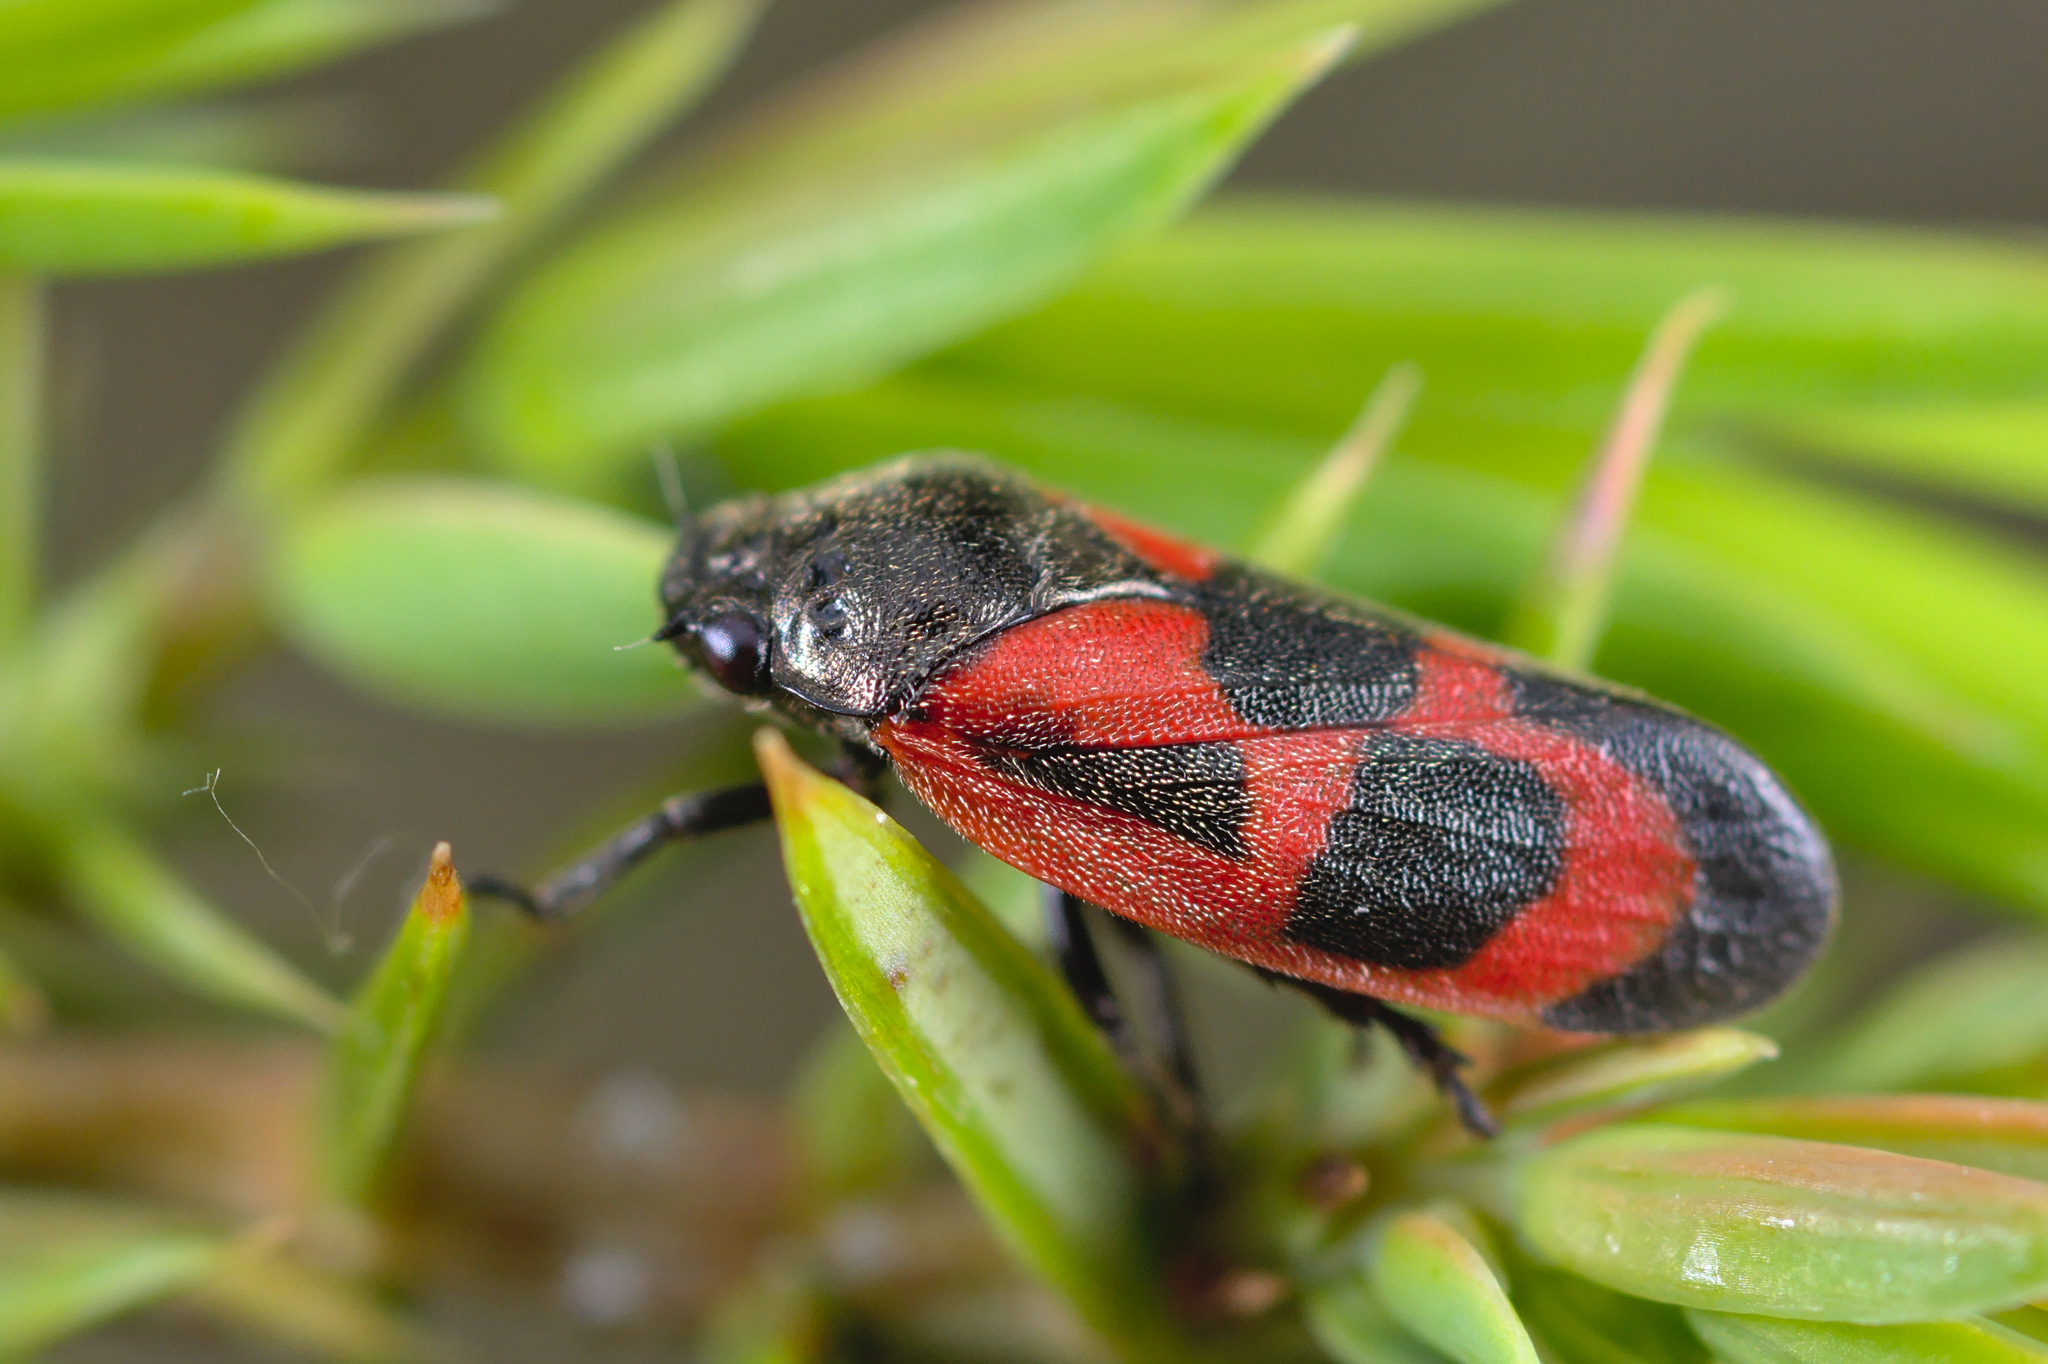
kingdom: Animalia
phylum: Arthropoda
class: Insecta
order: Hemiptera
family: Cercopidae
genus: Haematoloma
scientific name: Haematoloma dorsata
